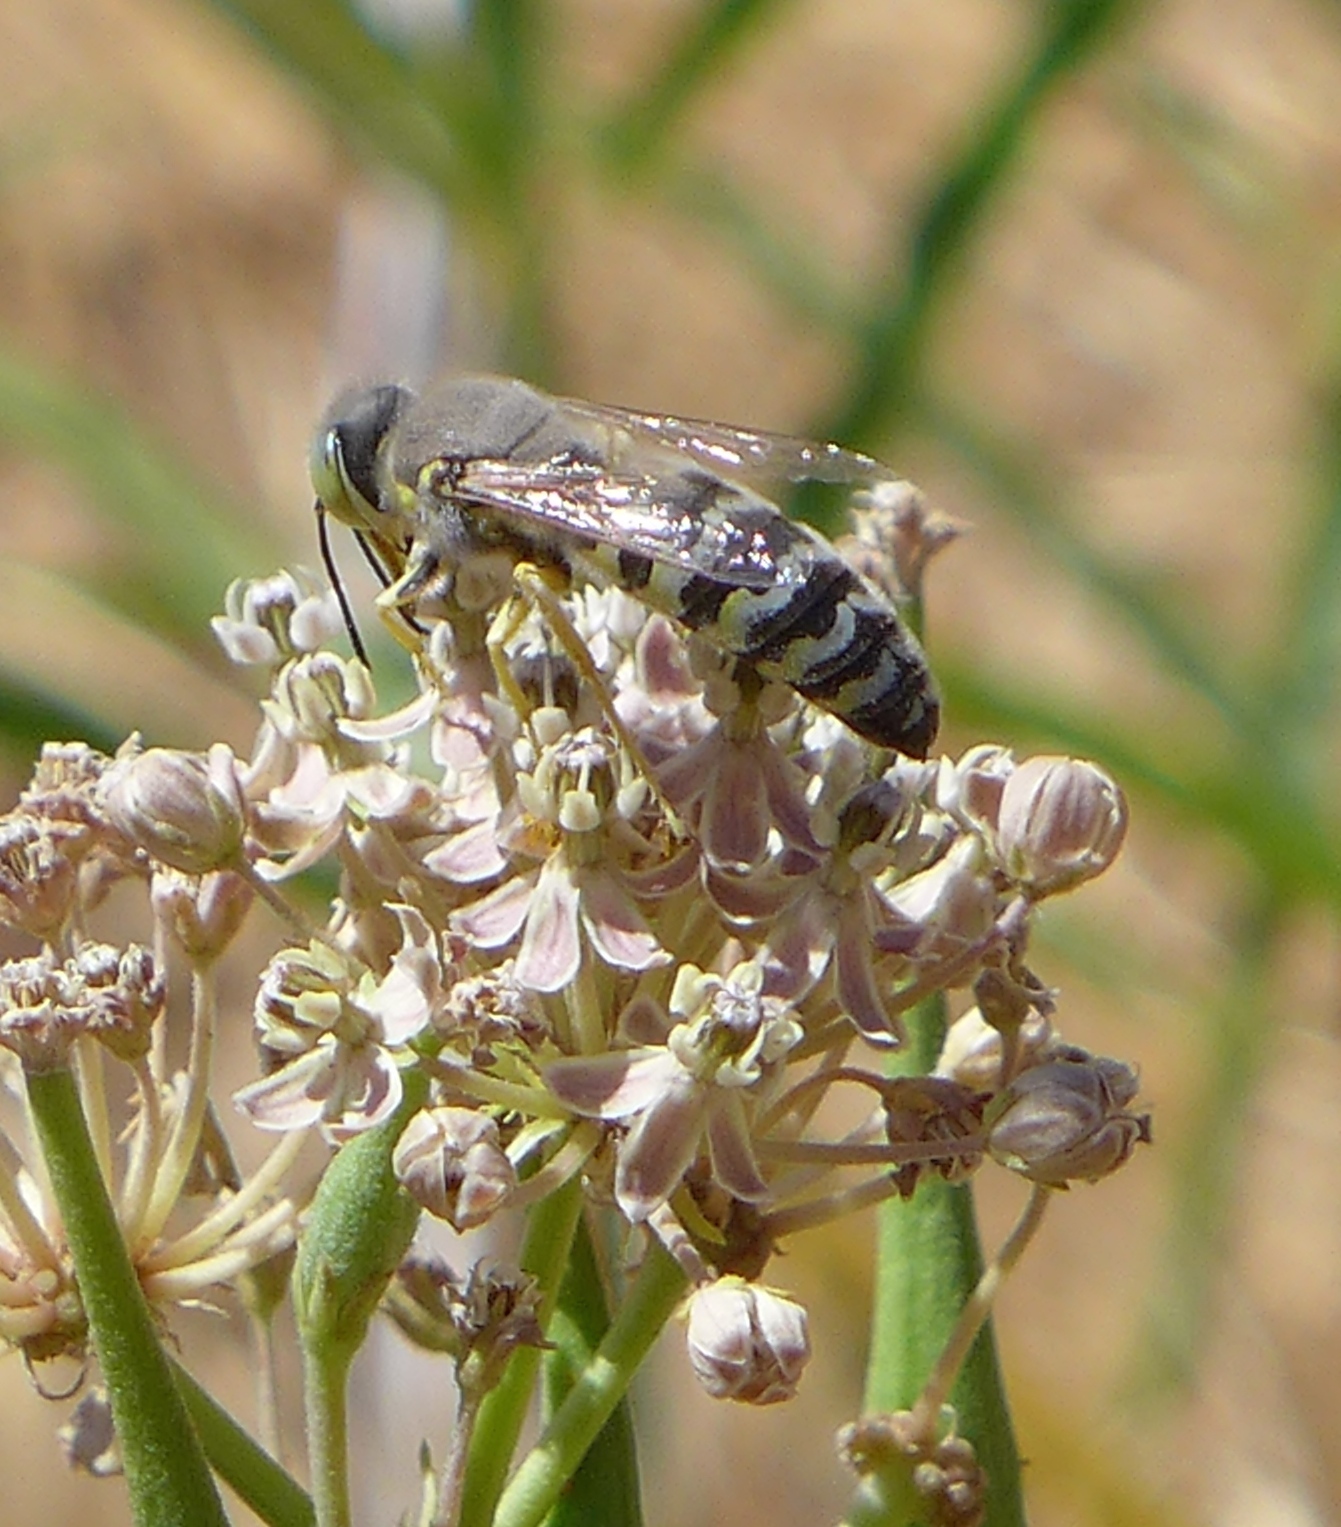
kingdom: Animalia
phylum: Arthropoda
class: Insecta
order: Hymenoptera
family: Crabronidae
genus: Bembix
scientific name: Bembix
